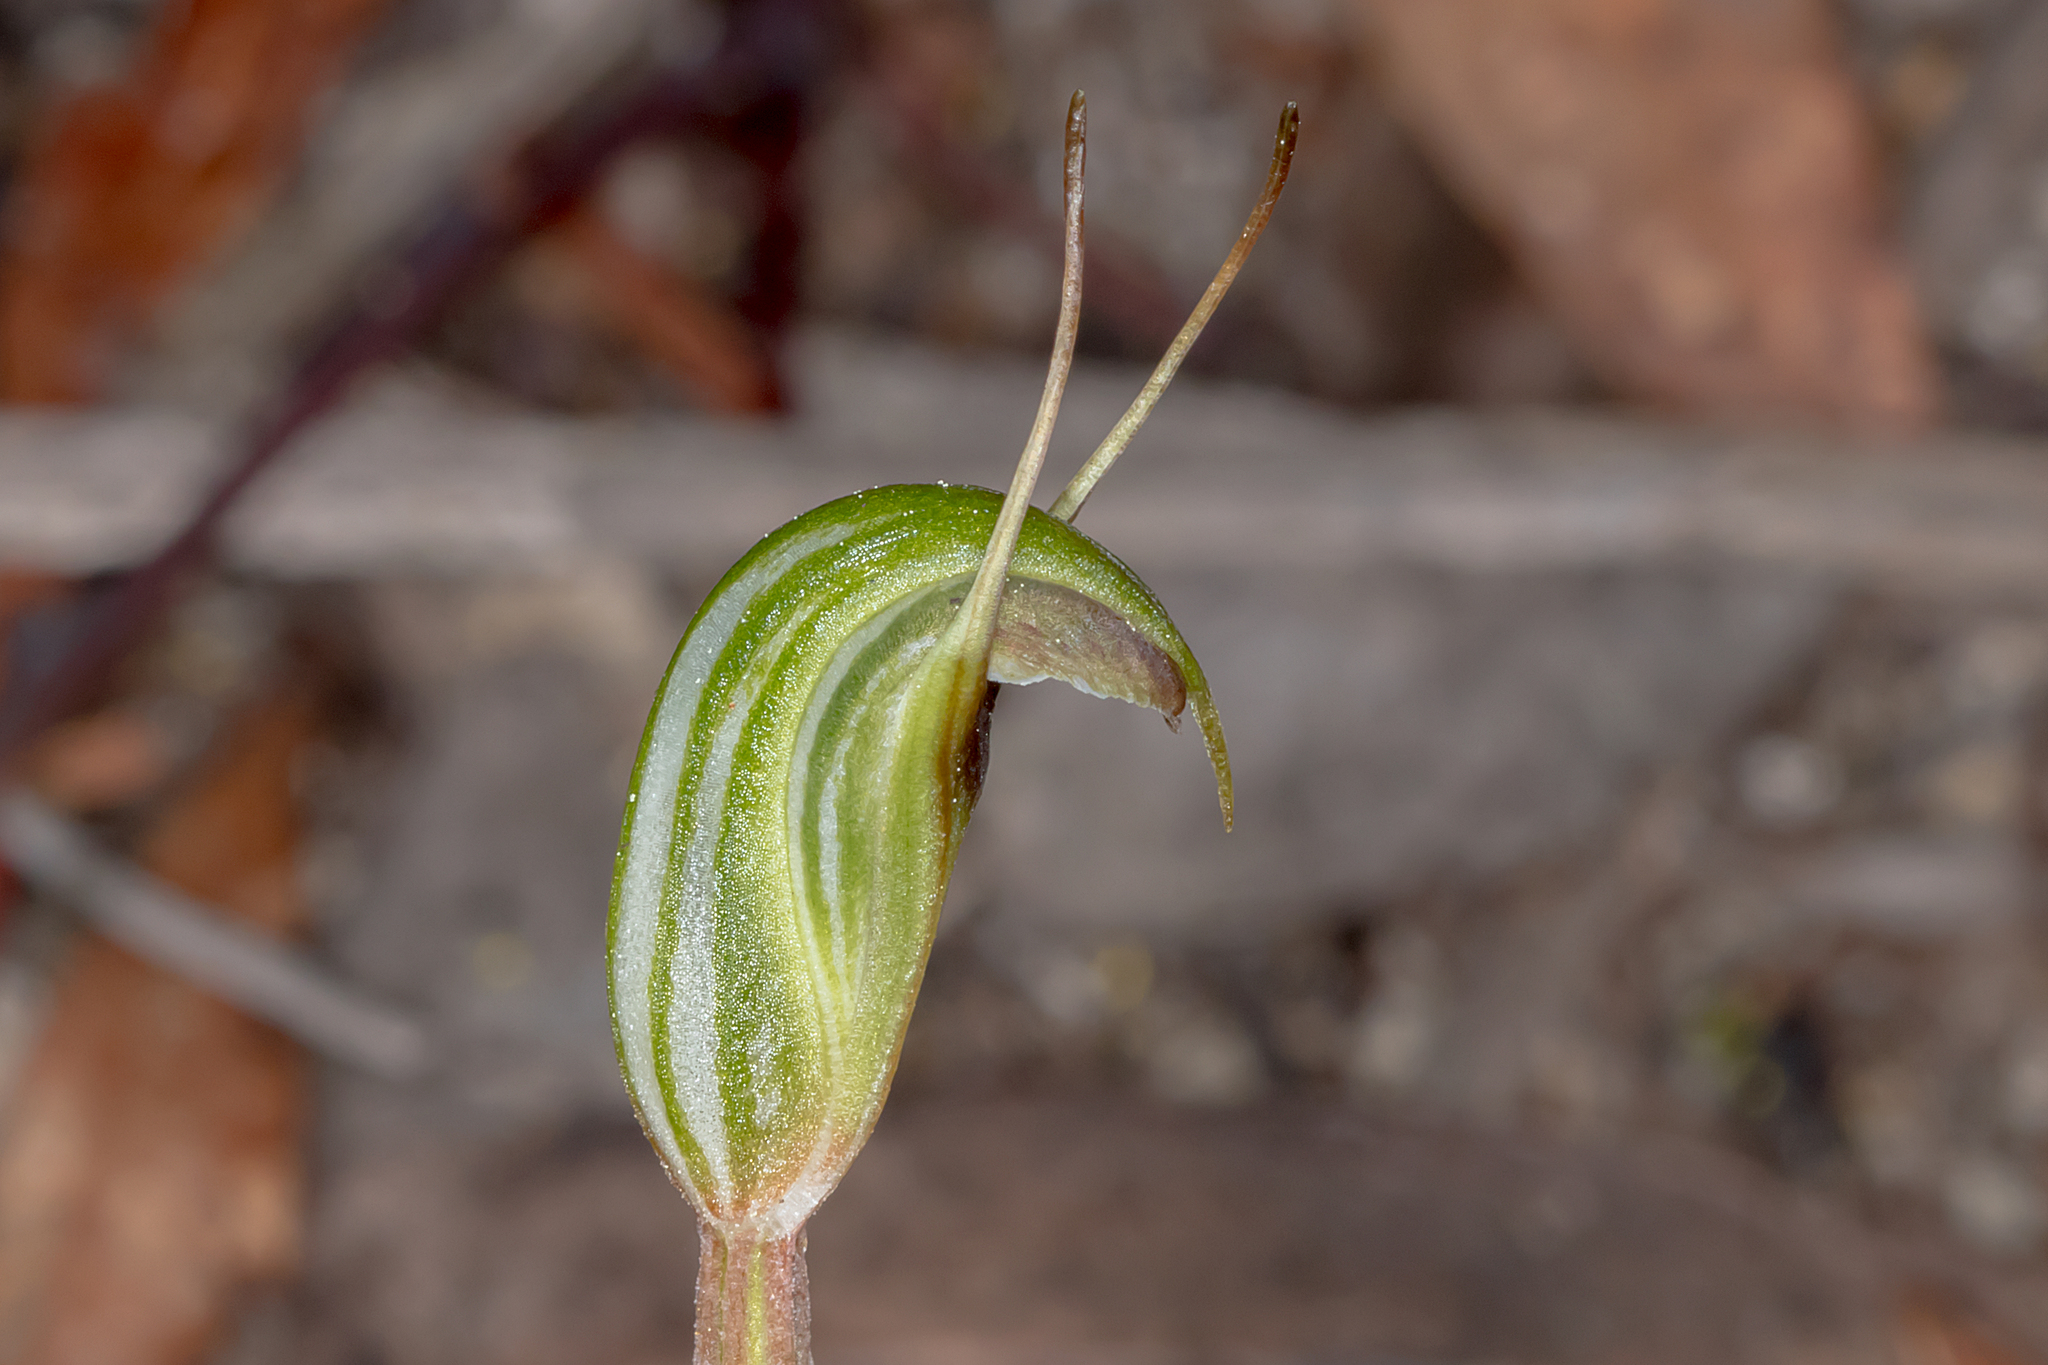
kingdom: Plantae
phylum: Tracheophyta
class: Liliopsida
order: Asparagales
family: Orchidaceae
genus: Pterostylis
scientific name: Pterostylis concinna
